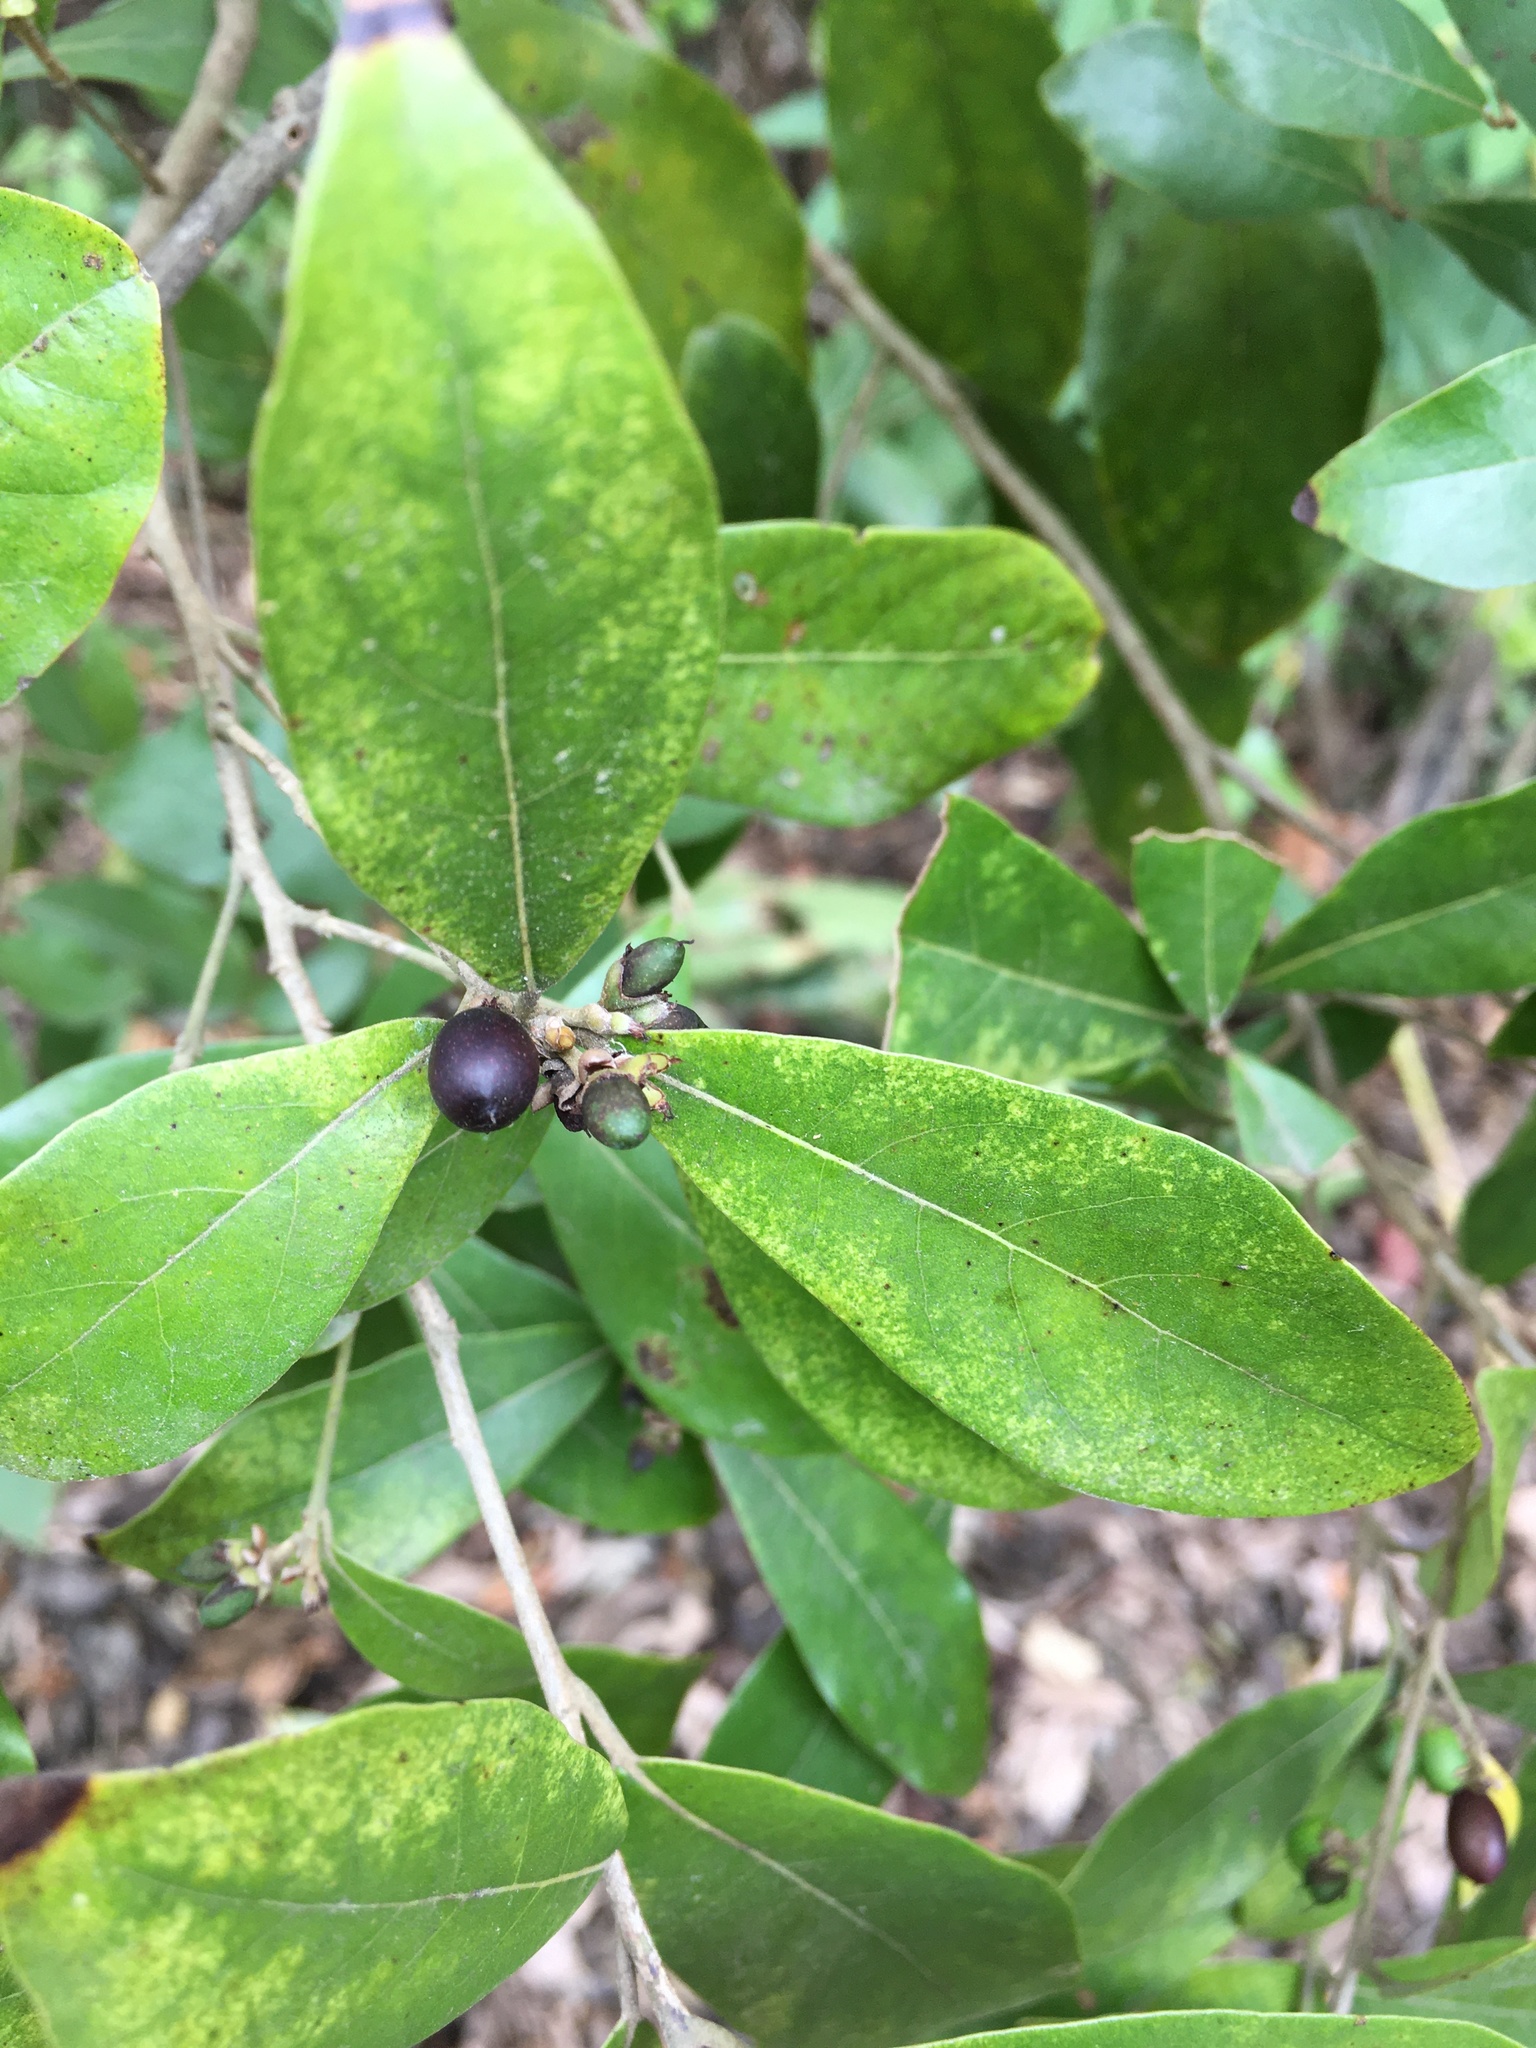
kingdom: Plantae
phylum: Tracheophyta
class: Magnoliopsida
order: Laurales
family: Lauraceae
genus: Litsea
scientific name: Litsea hypophaea
